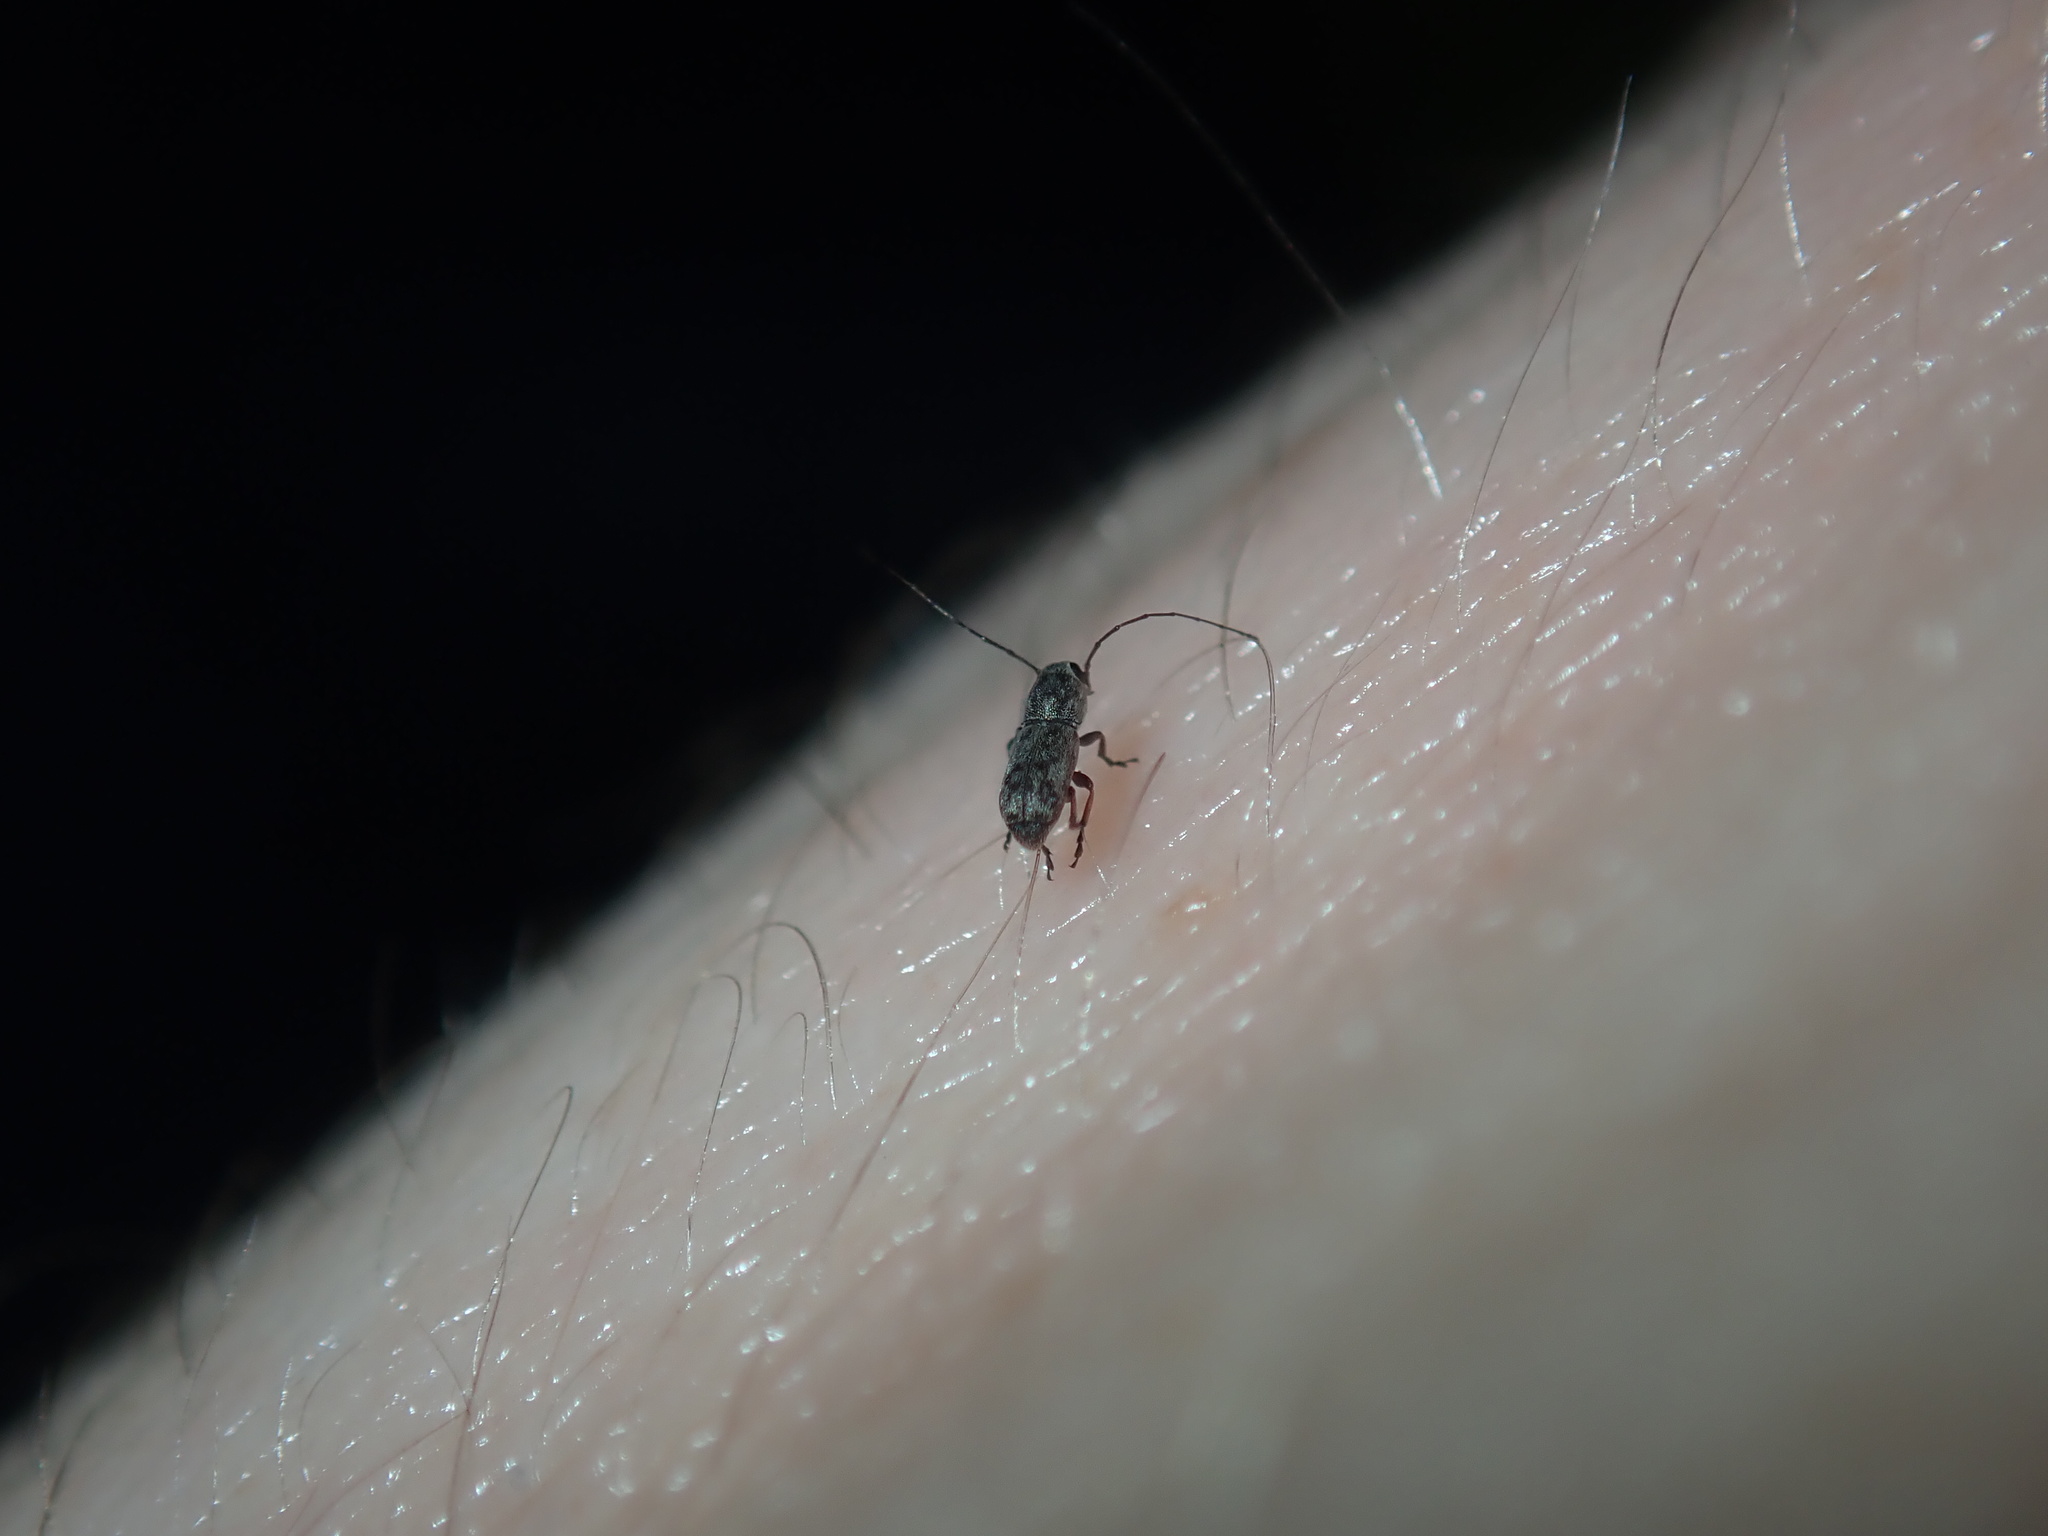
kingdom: Animalia
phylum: Arthropoda
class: Insecta
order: Coleoptera
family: Anthribidae
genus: Euciodes
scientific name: Euciodes suturalis
